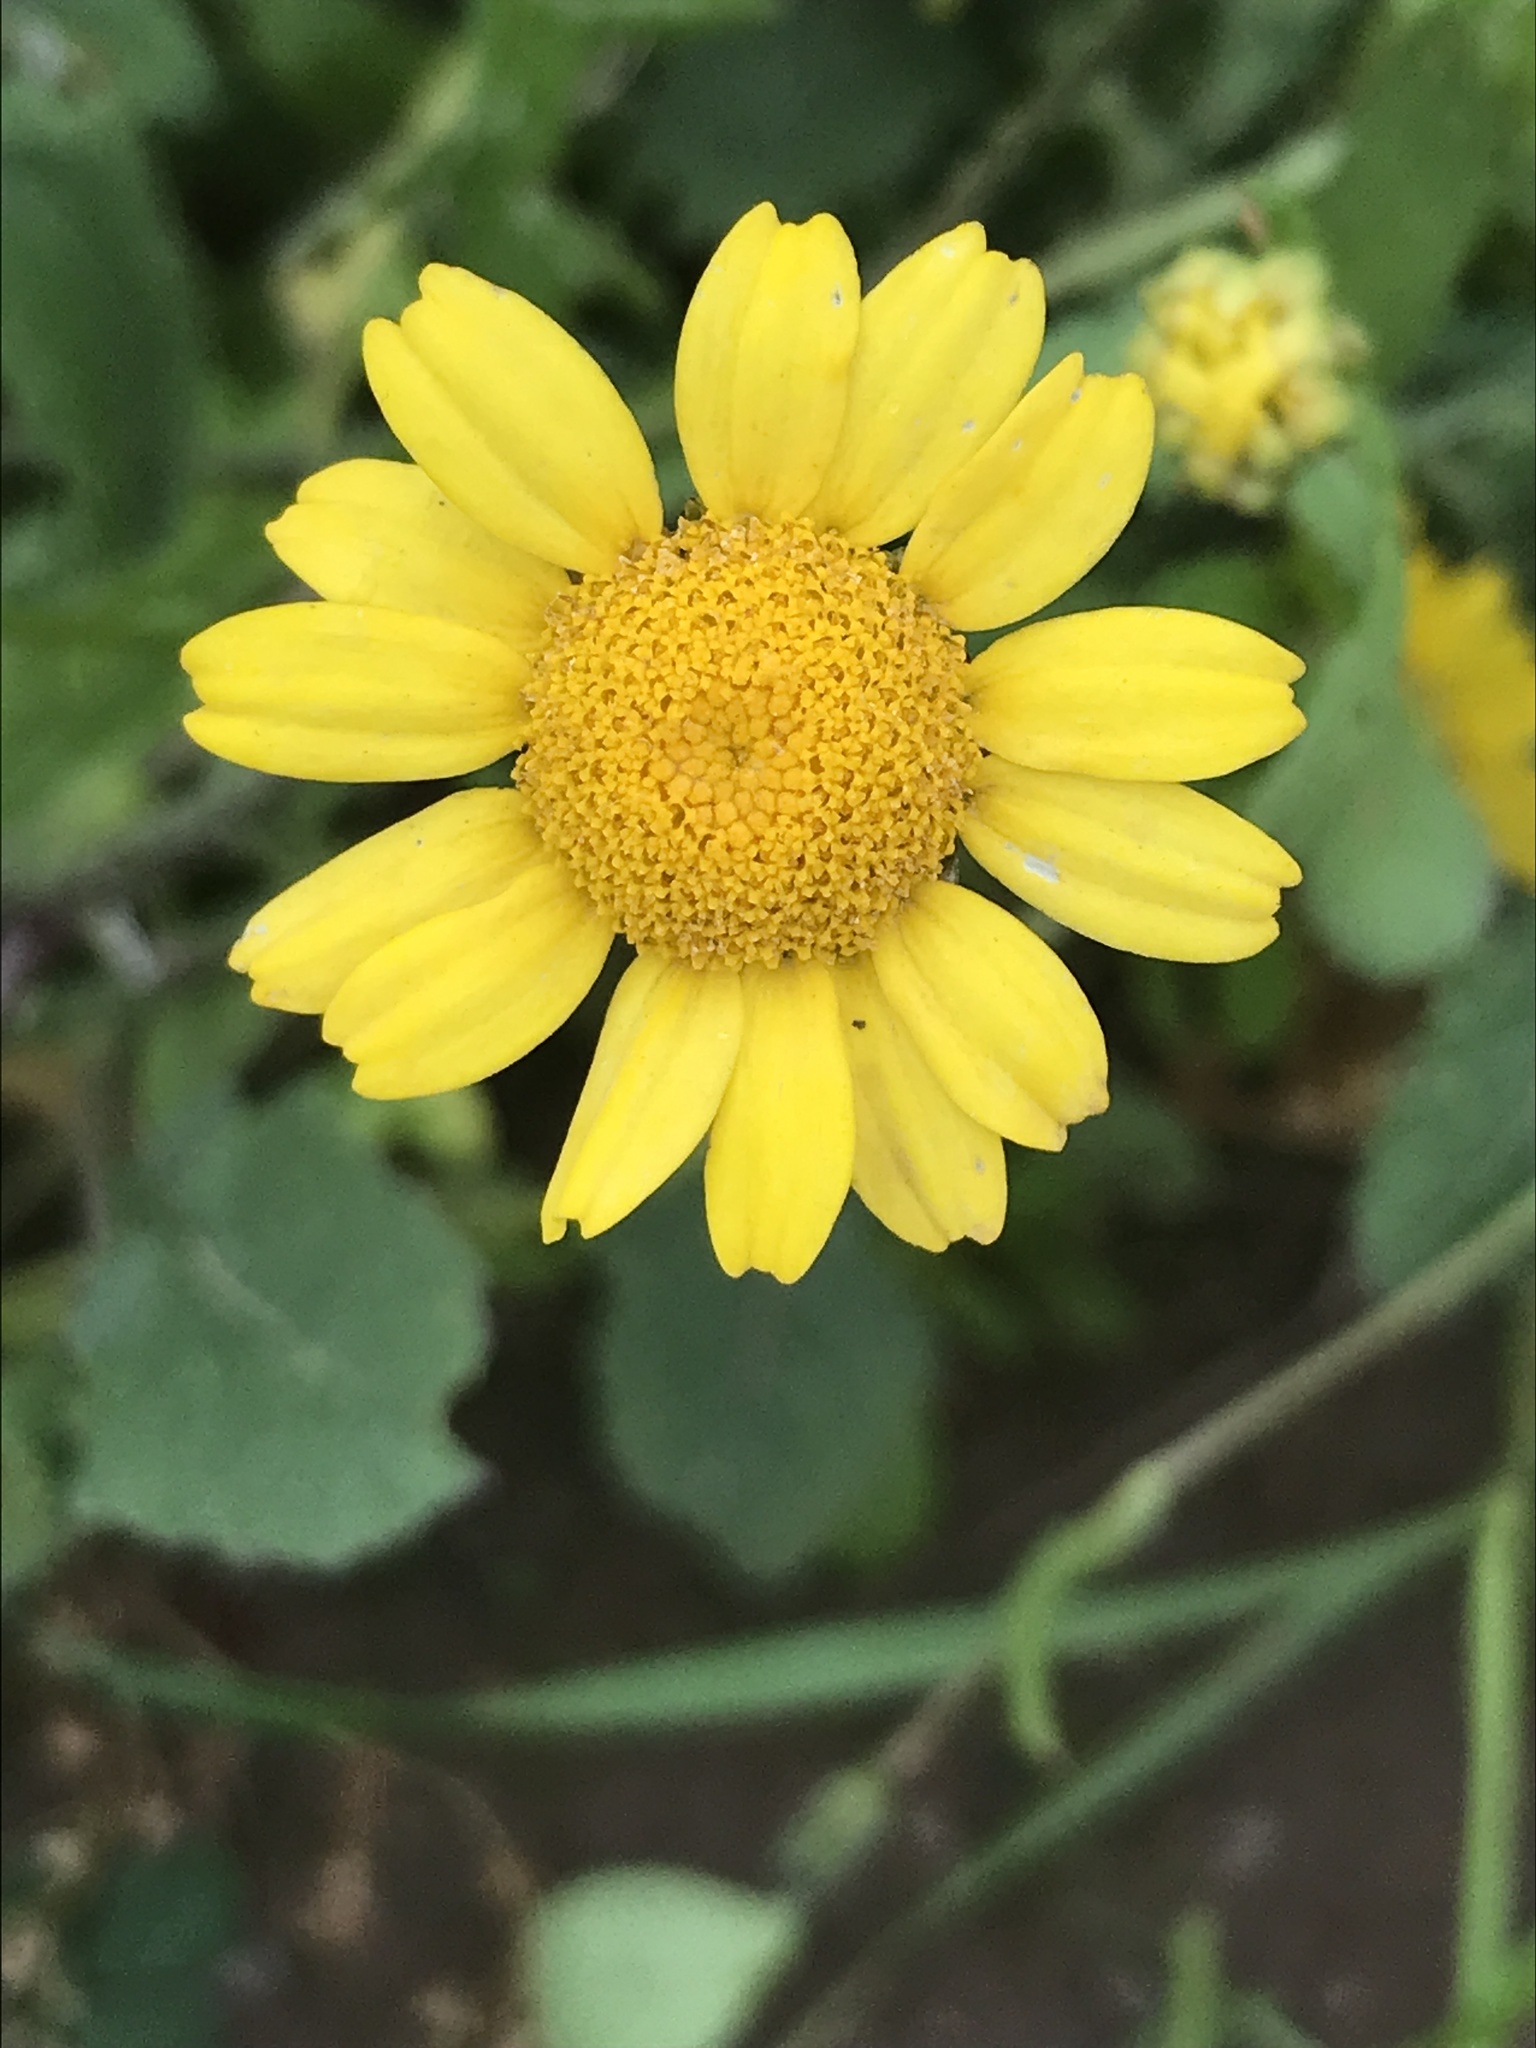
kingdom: Plantae
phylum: Tracheophyta
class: Magnoliopsida
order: Asterales
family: Asteraceae
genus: Coleostephus
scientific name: Coleostephus myconis
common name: Mediterranean marigold
